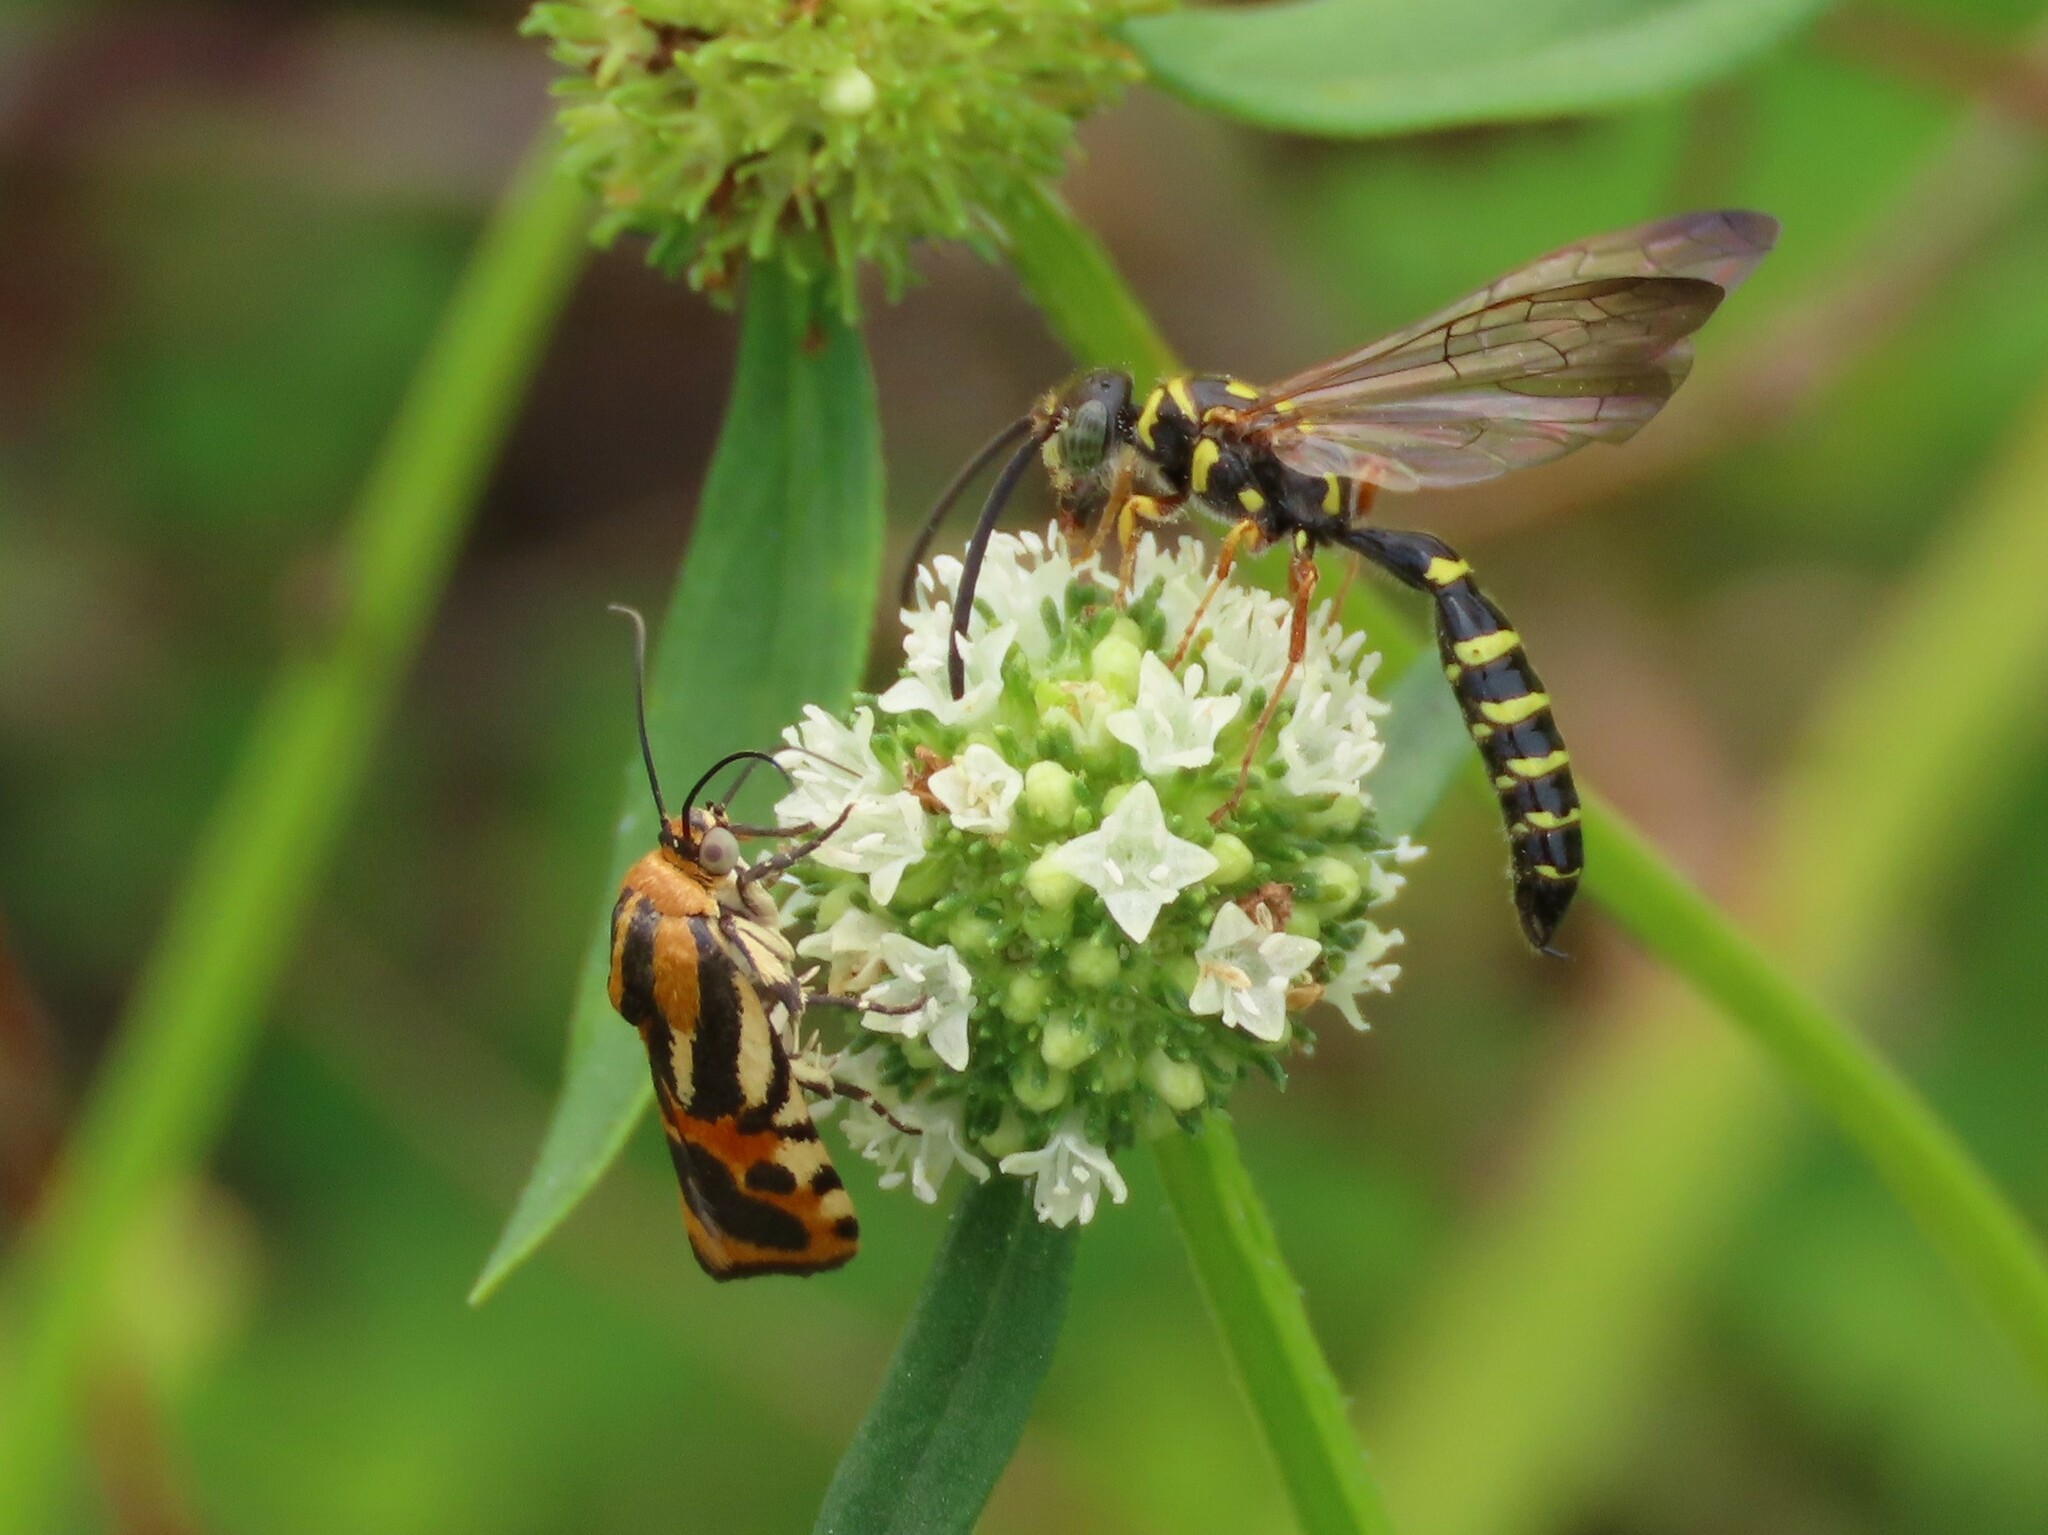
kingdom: Animalia
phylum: Arthropoda
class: Insecta
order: Lepidoptera
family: Noctuidae
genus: Acontia
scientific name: Acontia onagrus
